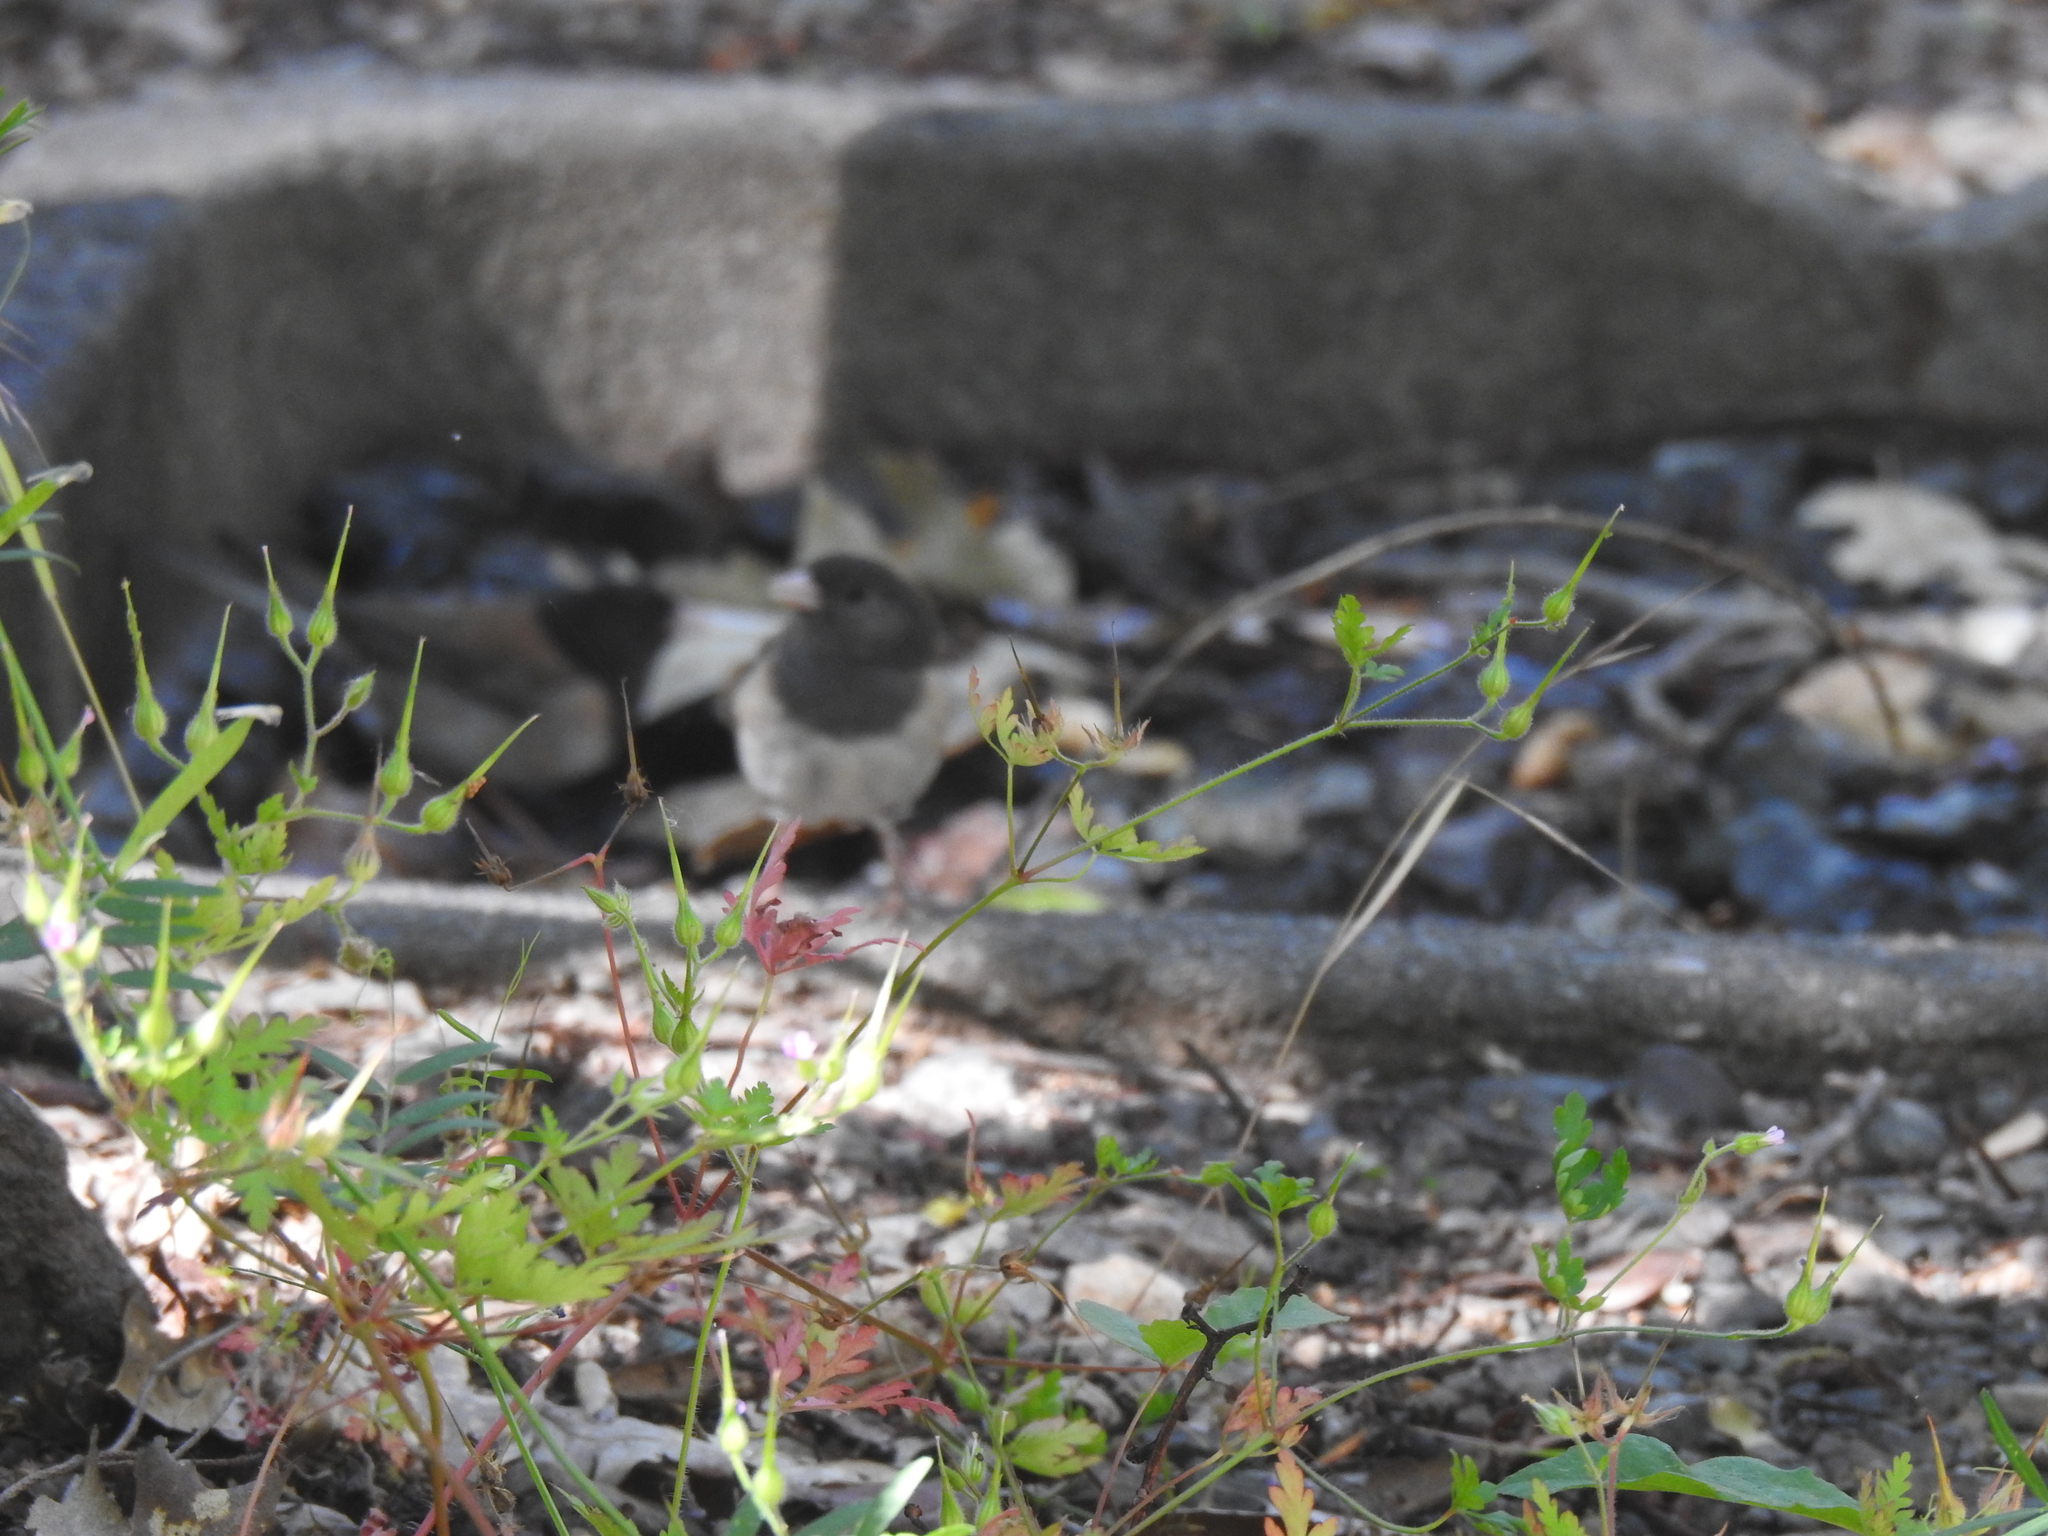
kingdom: Animalia
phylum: Chordata
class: Aves
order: Passeriformes
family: Passerellidae
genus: Junco
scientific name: Junco hyemalis
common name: Dark-eyed junco
